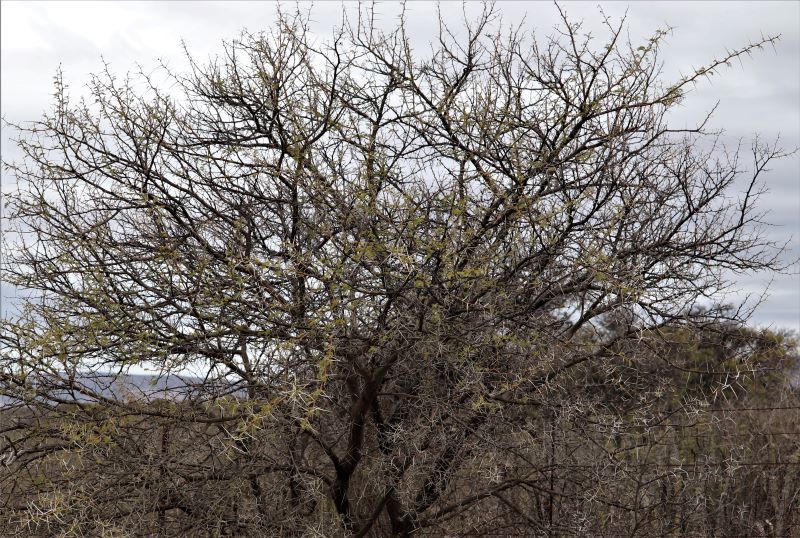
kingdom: Plantae
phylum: Tracheophyta
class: Magnoliopsida
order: Fabales
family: Fabaceae
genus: Vachellia
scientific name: Vachellia karroo
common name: Sweet thorn
